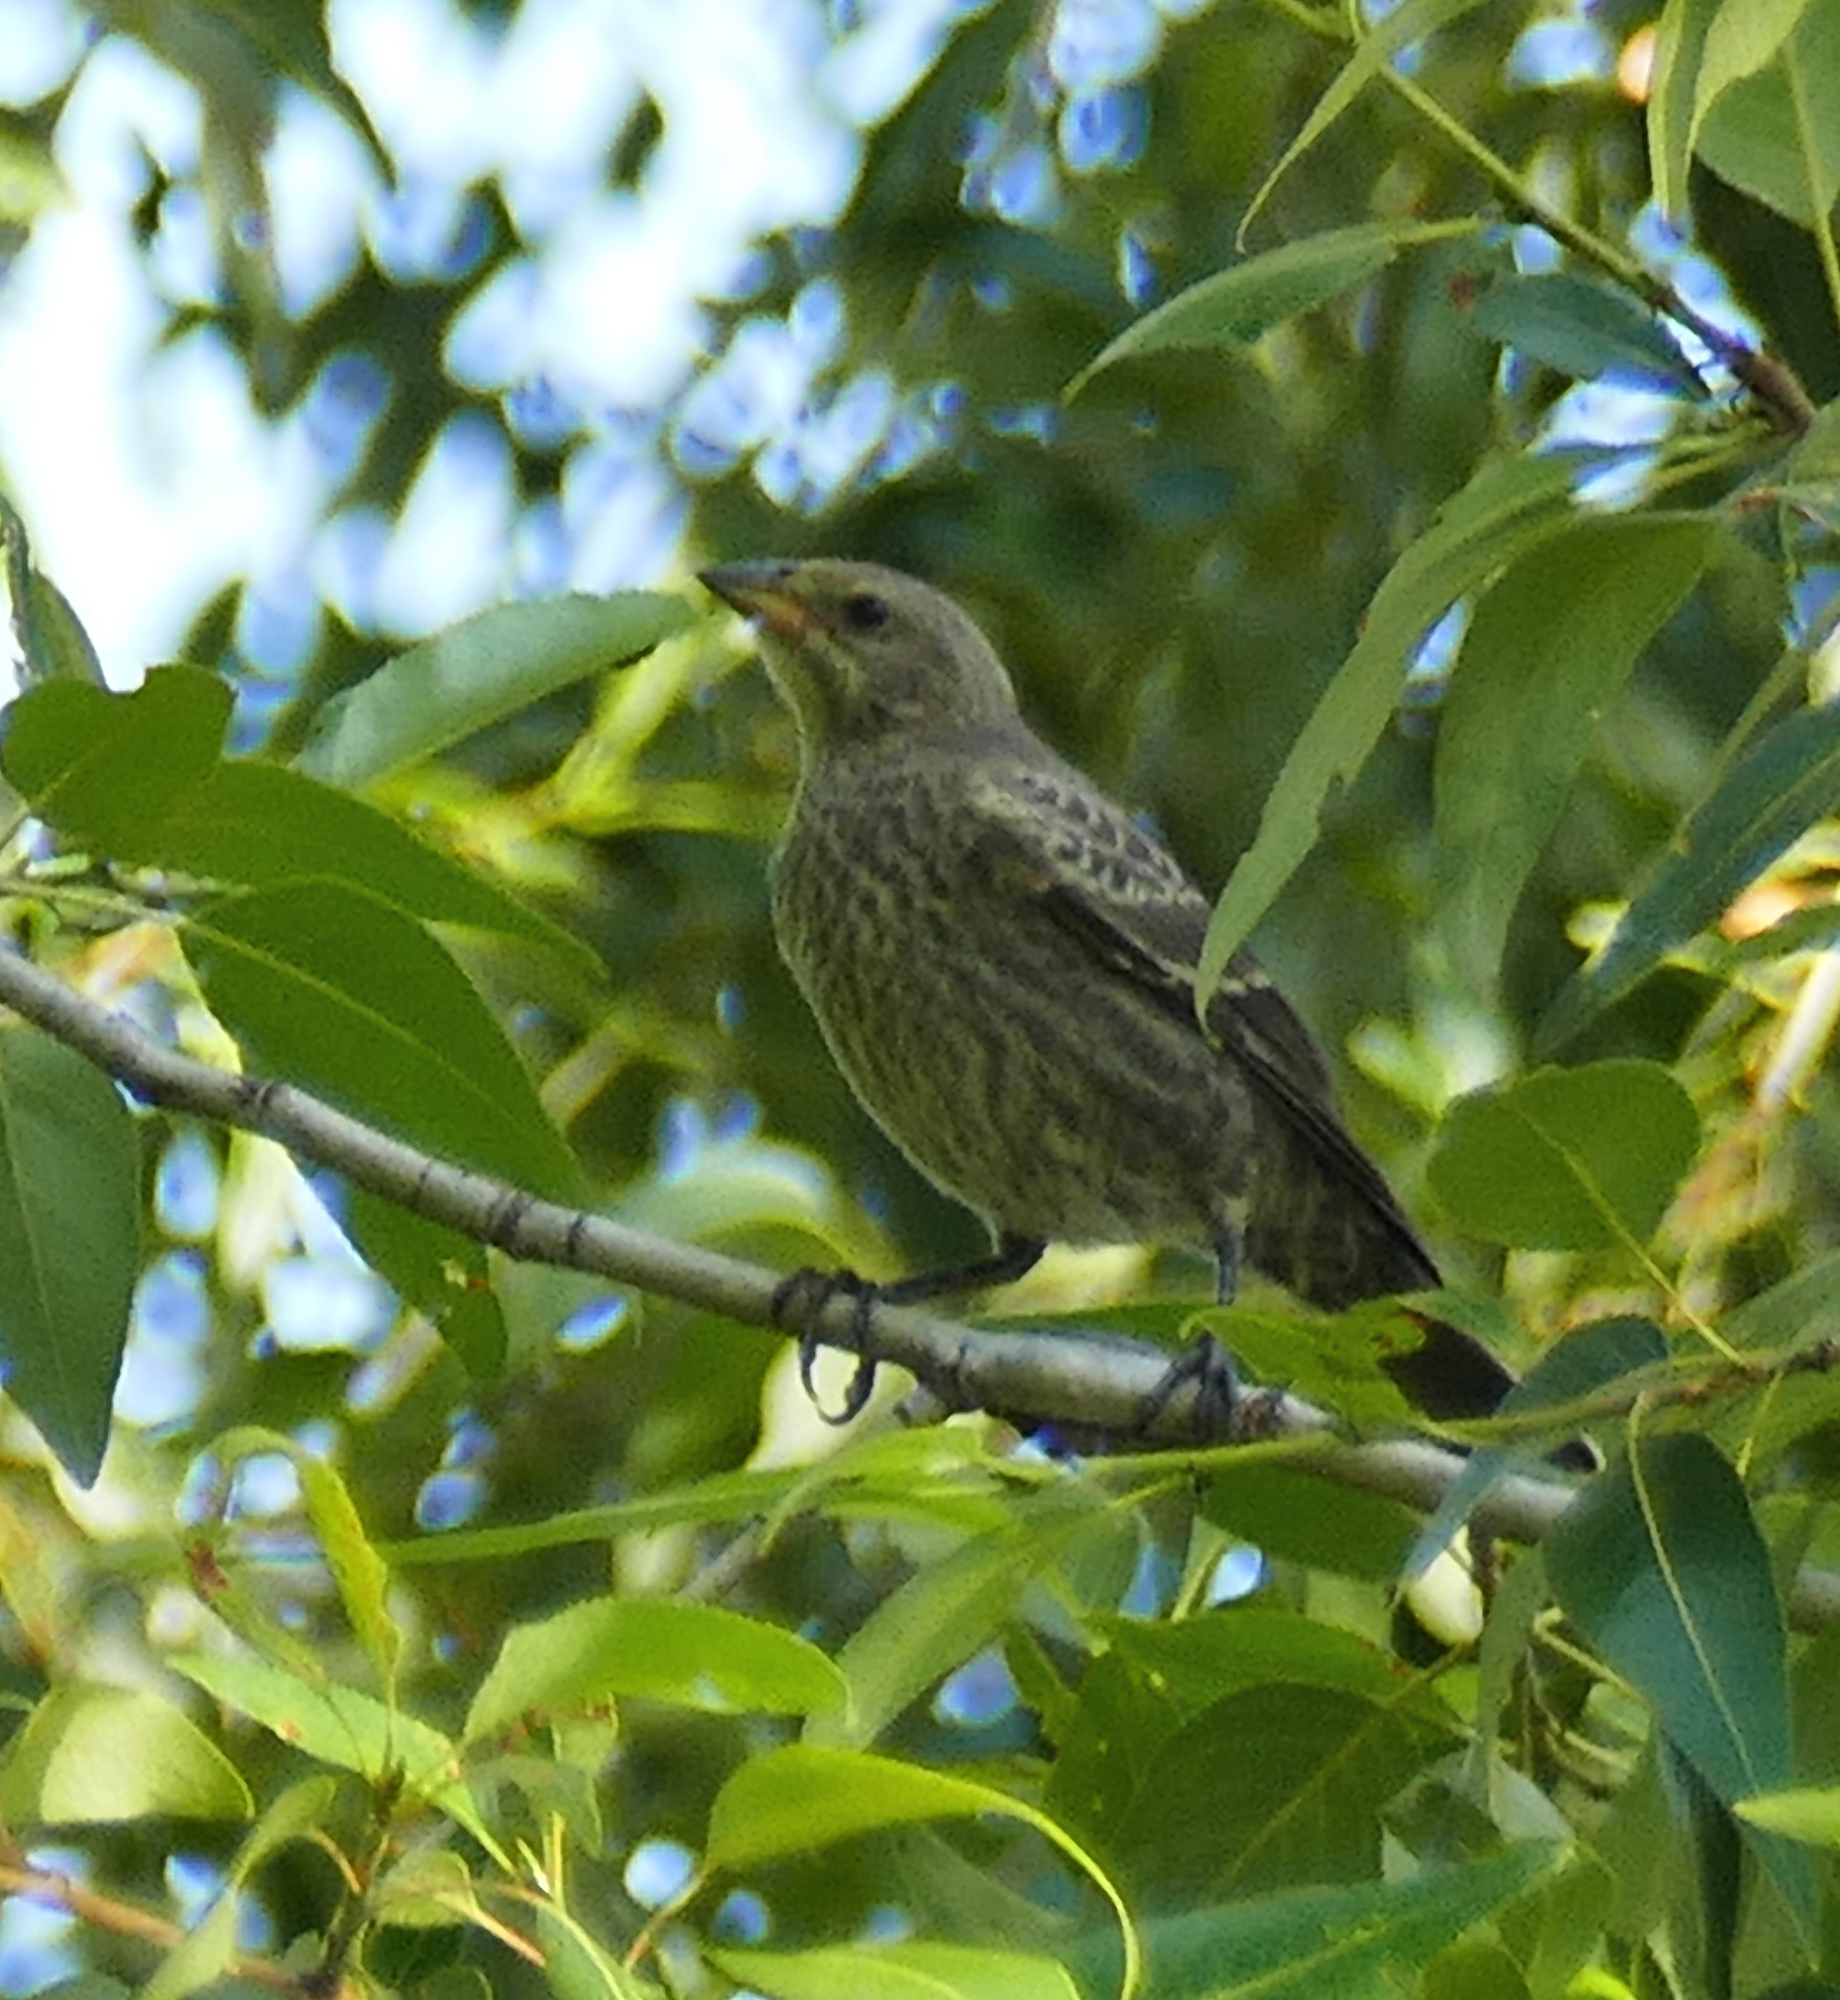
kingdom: Animalia
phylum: Chordata
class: Aves
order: Passeriformes
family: Icteridae
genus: Molothrus
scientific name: Molothrus ater
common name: Brown-headed cowbird
